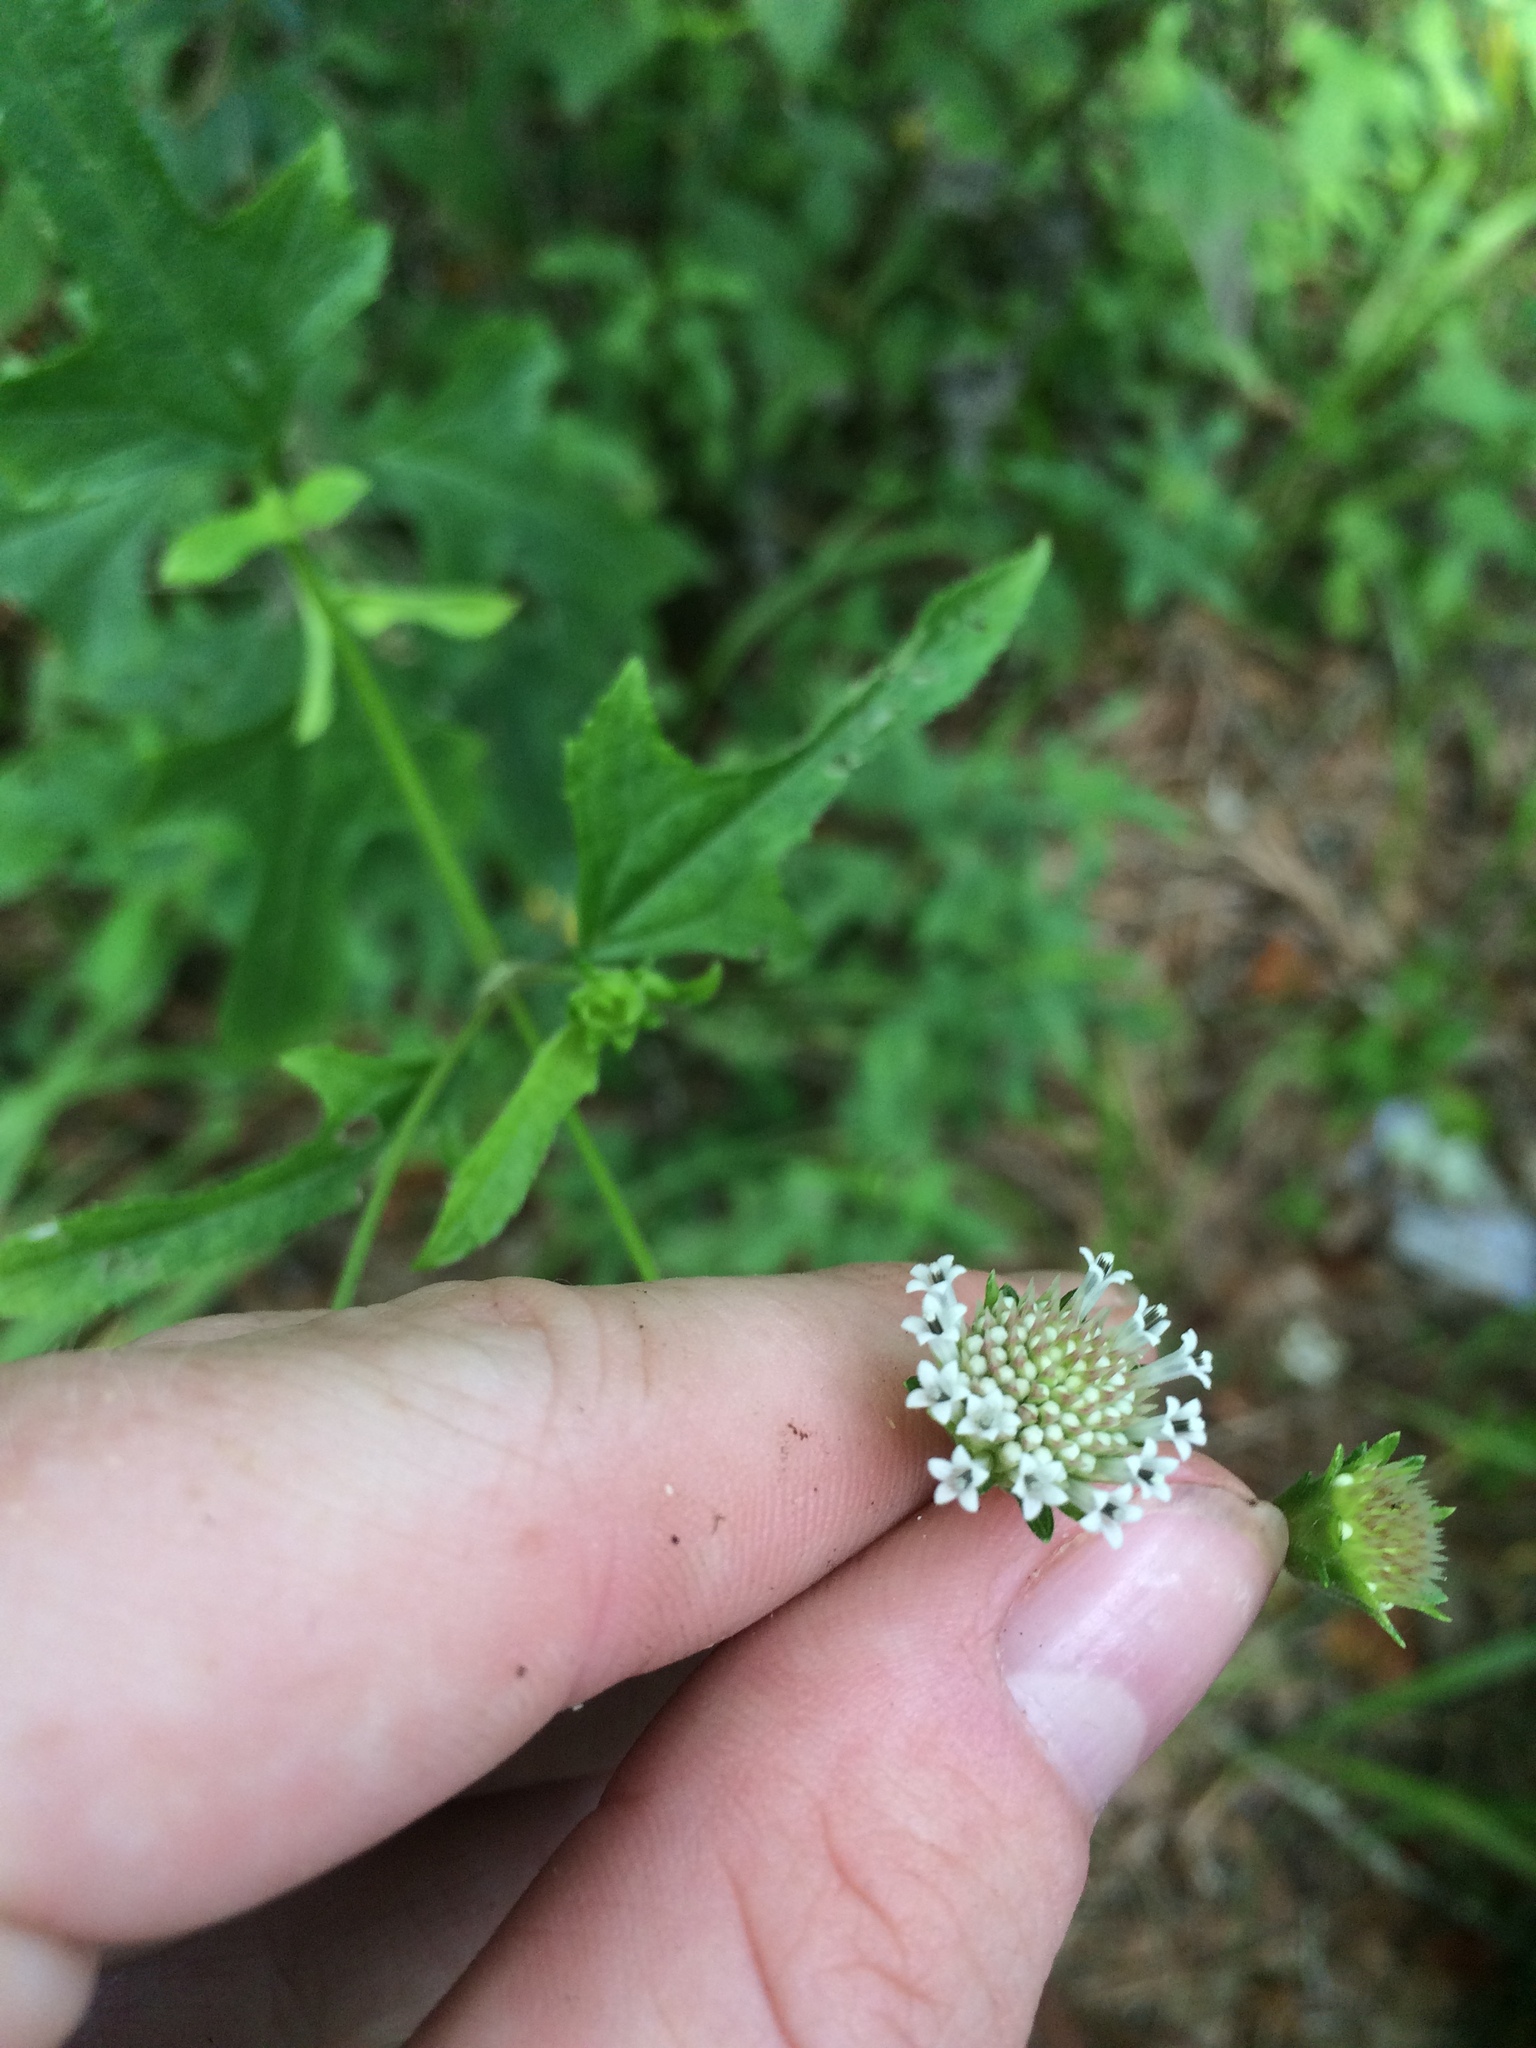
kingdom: Plantae
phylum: Tracheophyta
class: Magnoliopsida
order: Asterales
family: Asteraceae
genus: Melanthera
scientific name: Melanthera nivea
